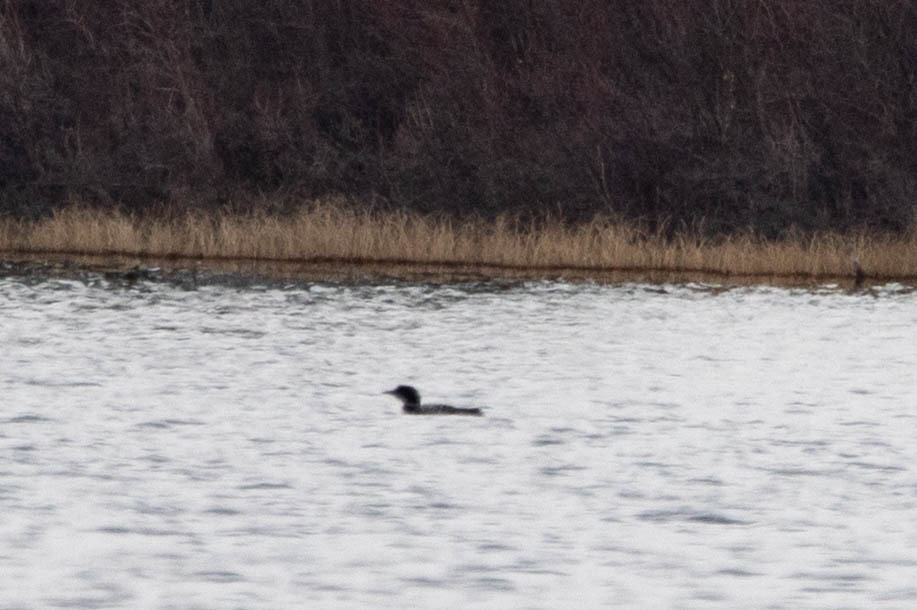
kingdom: Animalia
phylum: Chordata
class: Aves
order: Gaviiformes
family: Gaviidae
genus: Gavia
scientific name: Gavia immer
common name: Common loon
